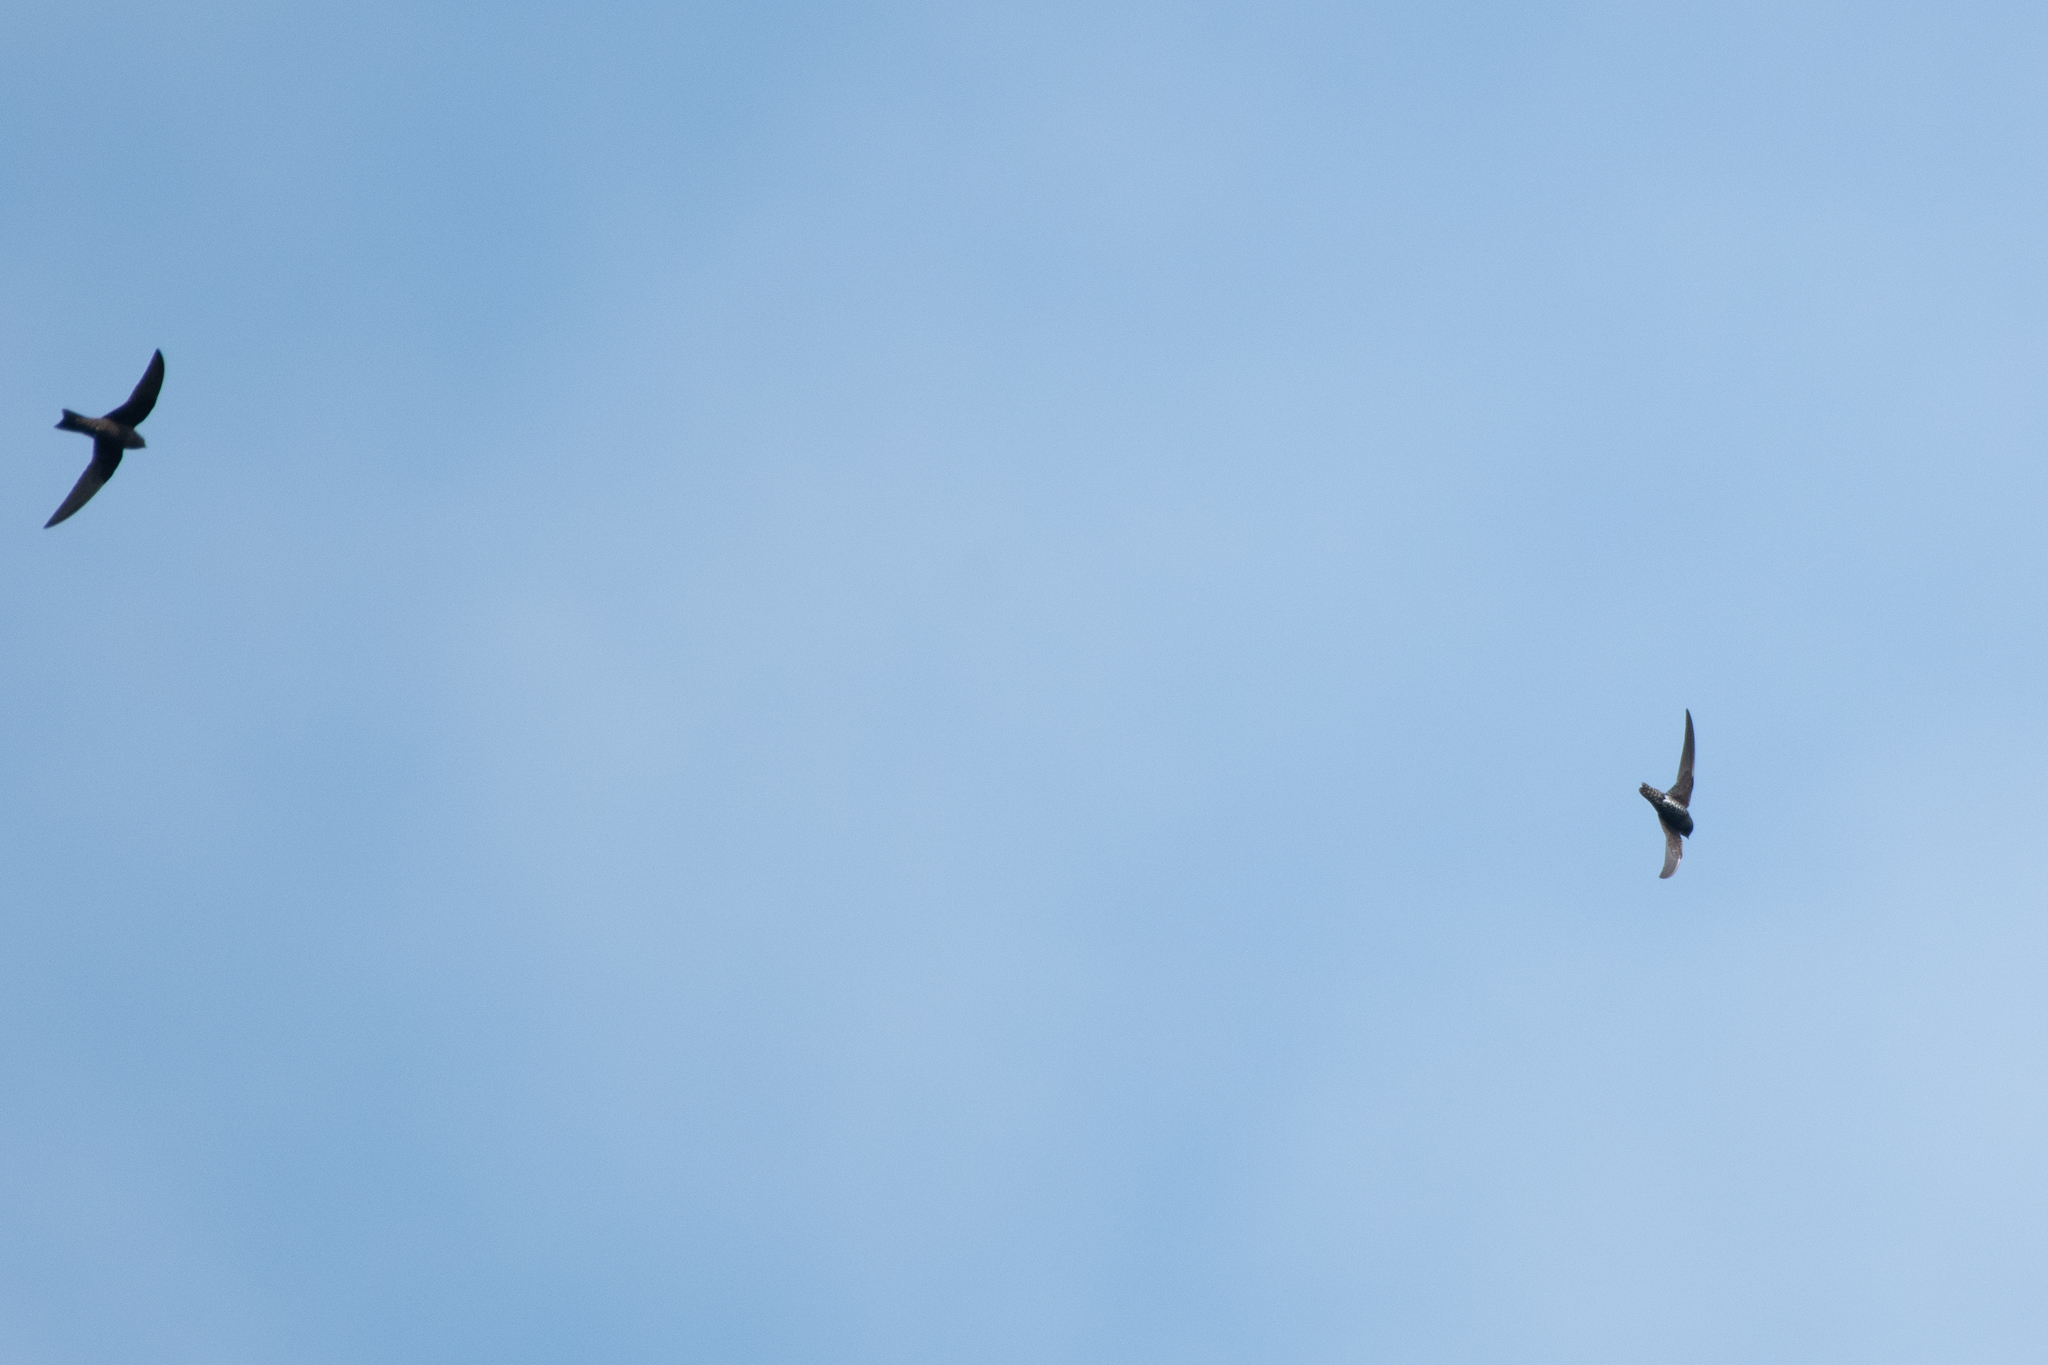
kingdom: Animalia
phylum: Chordata
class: Aves
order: Apodiformes
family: Apodidae
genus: Cypseloides
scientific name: Cypseloides niger
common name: Black swift
